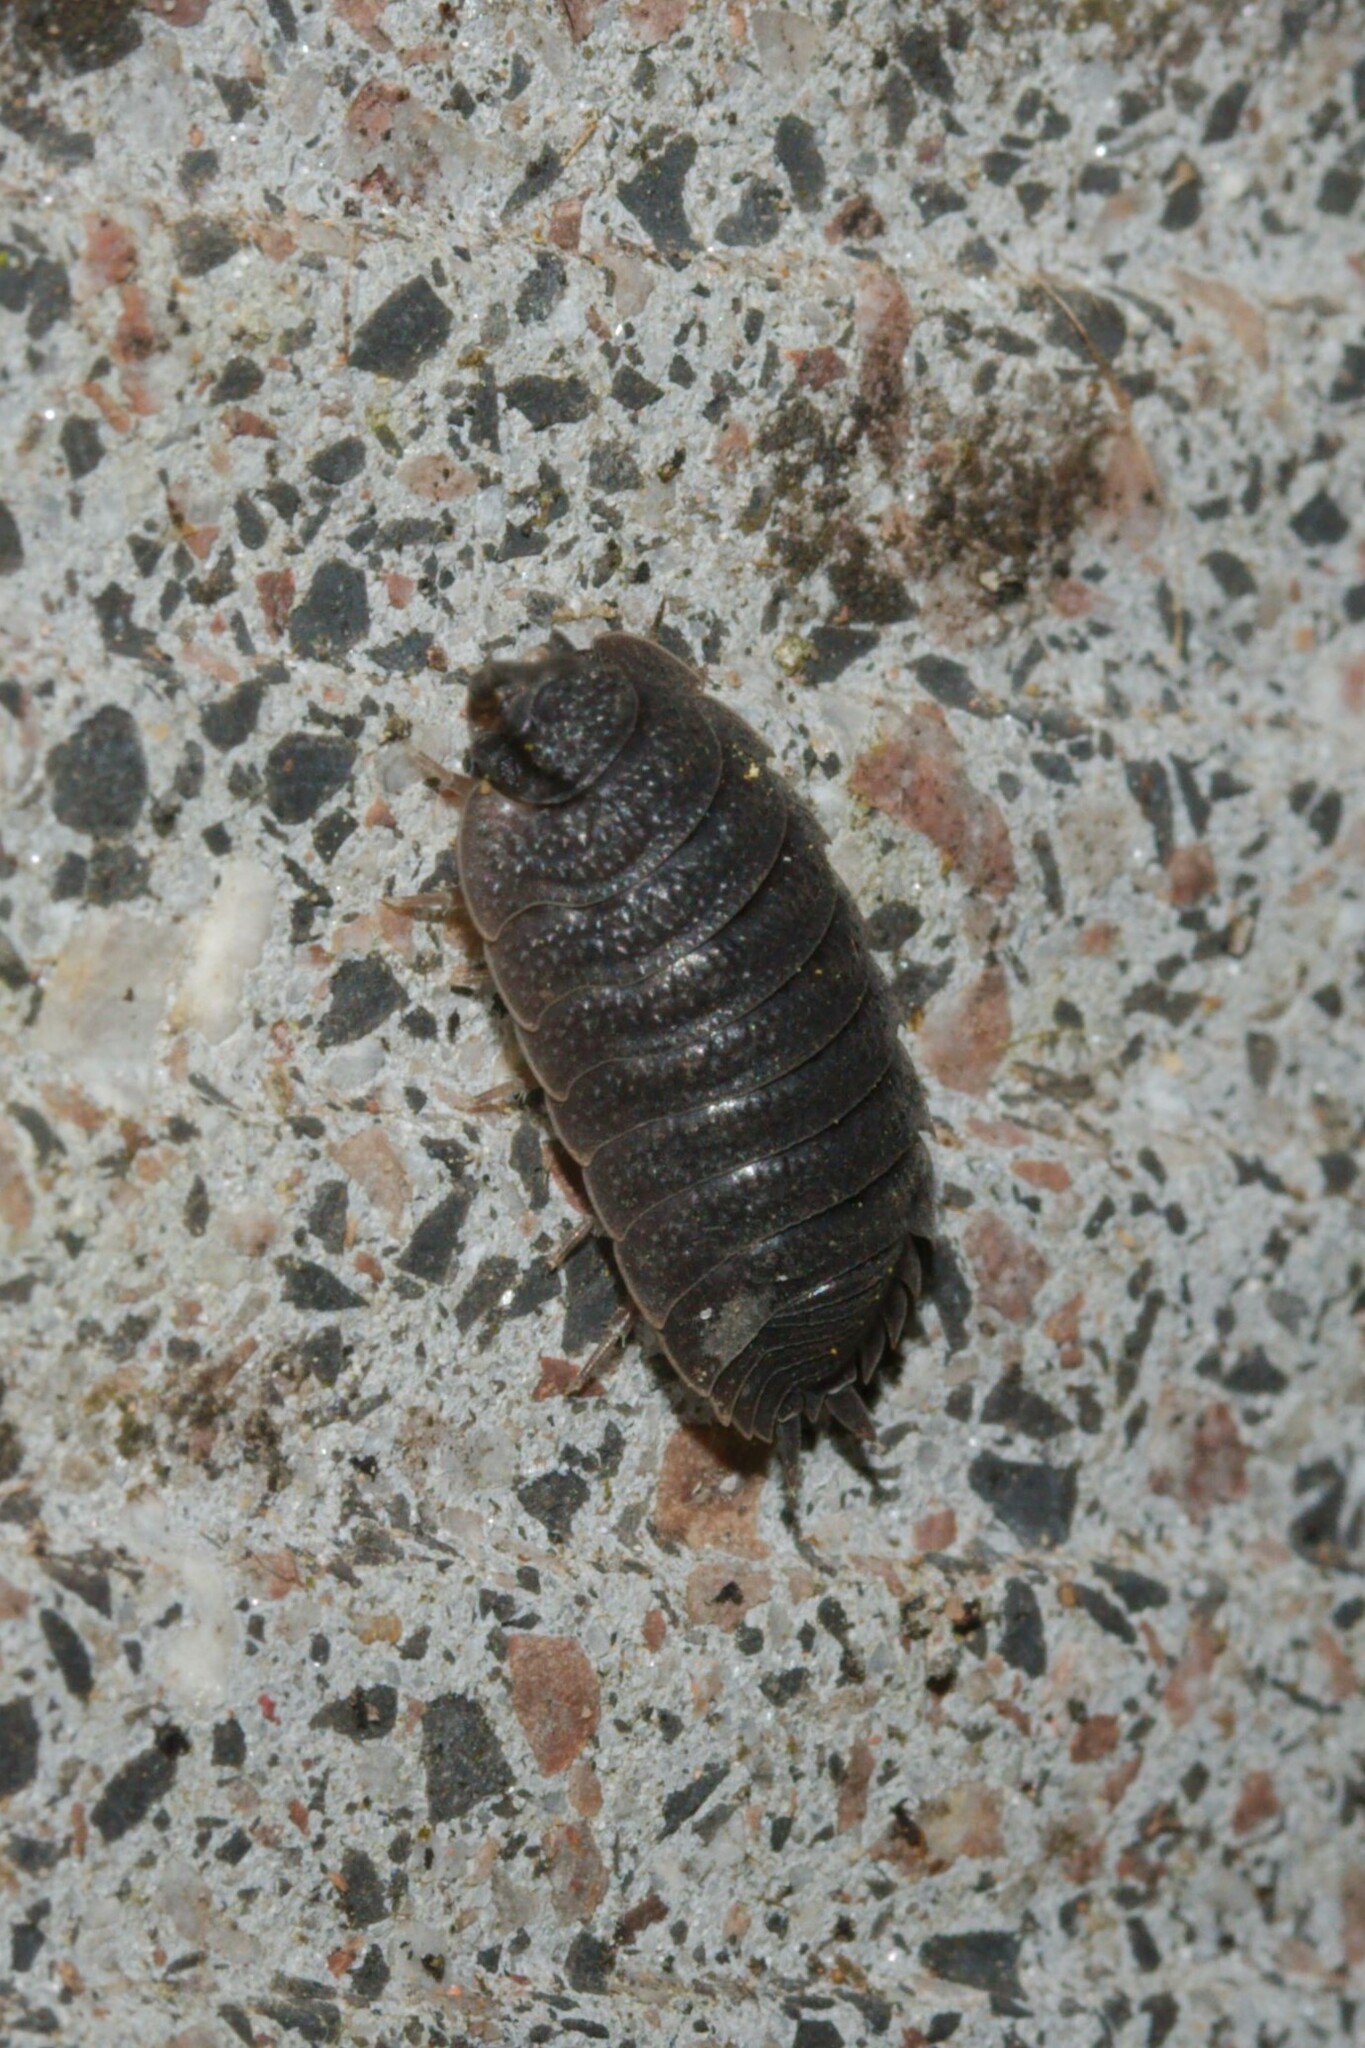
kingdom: Animalia
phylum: Arthropoda
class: Malacostraca
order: Isopoda
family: Porcellionidae
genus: Porcellio
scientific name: Porcellio scaber
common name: Common rough woodlouse
